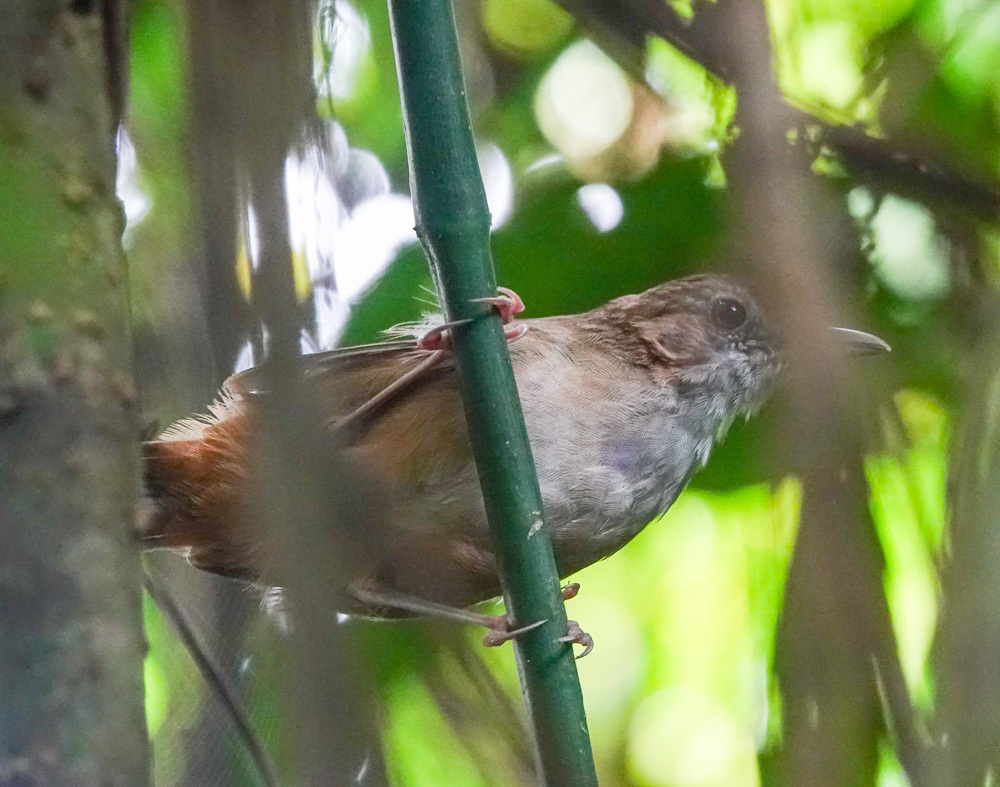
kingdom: Animalia
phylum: Chordata
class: Aves
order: Passeriformes
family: Pellorneidae
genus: Malacocincla
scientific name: Malacocincla abbotti
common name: Abbott's babbler
